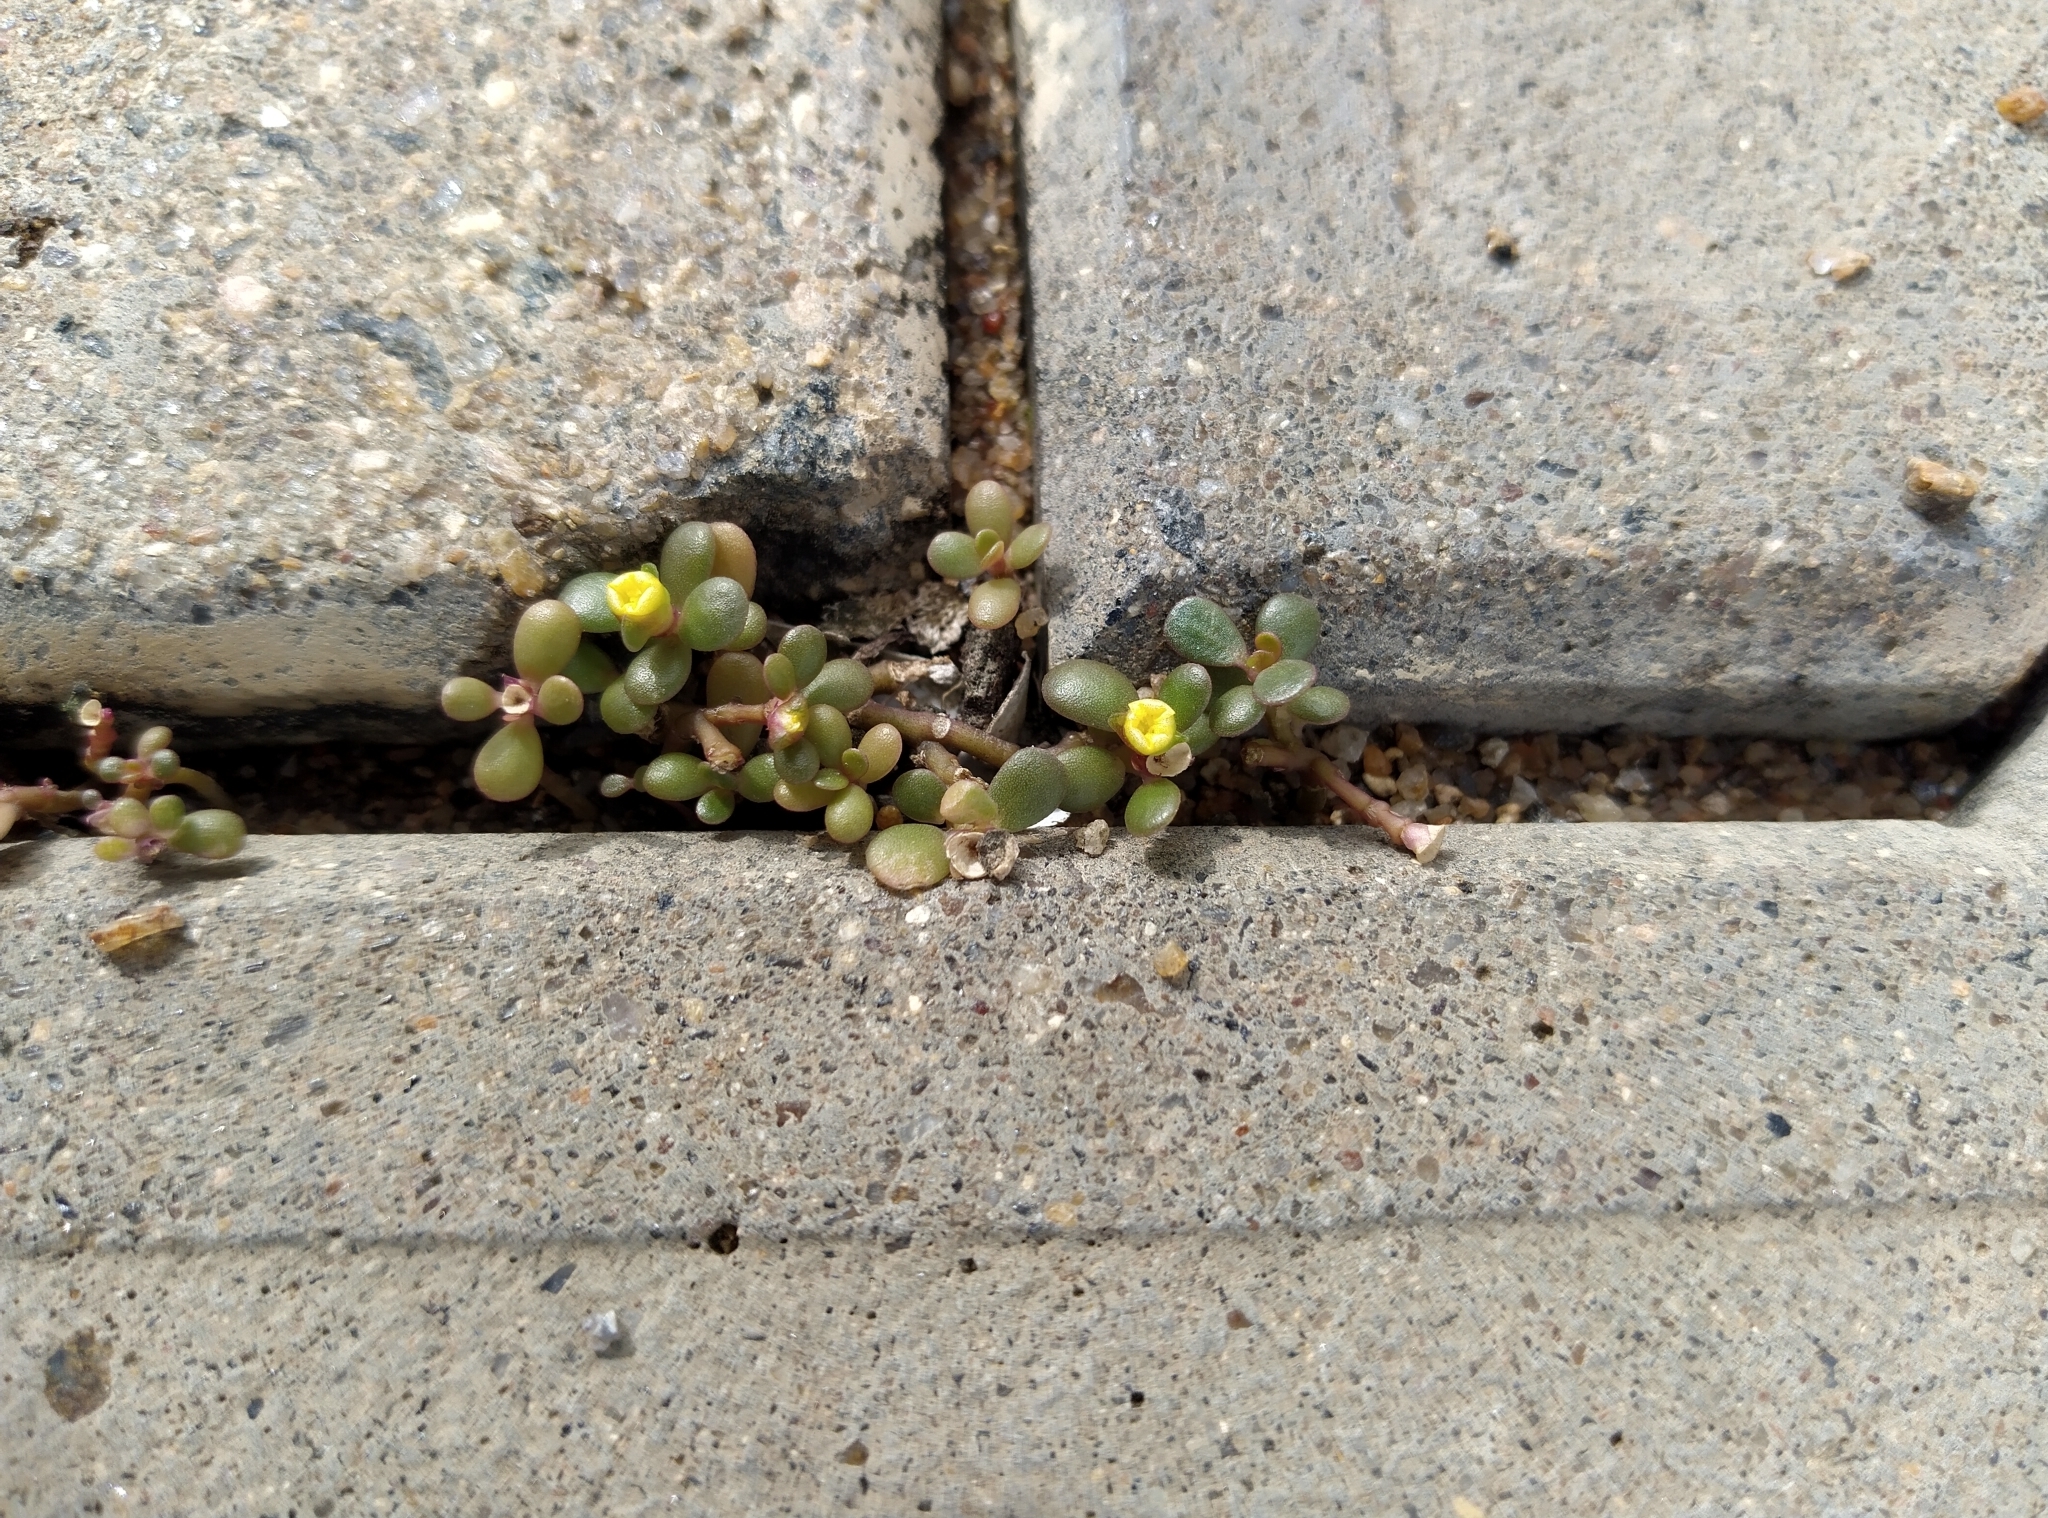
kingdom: Plantae
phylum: Tracheophyta
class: Magnoliopsida
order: Caryophyllales
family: Portulacaceae
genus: Portulaca
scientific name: Portulaca oleracea
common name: Common purslane
